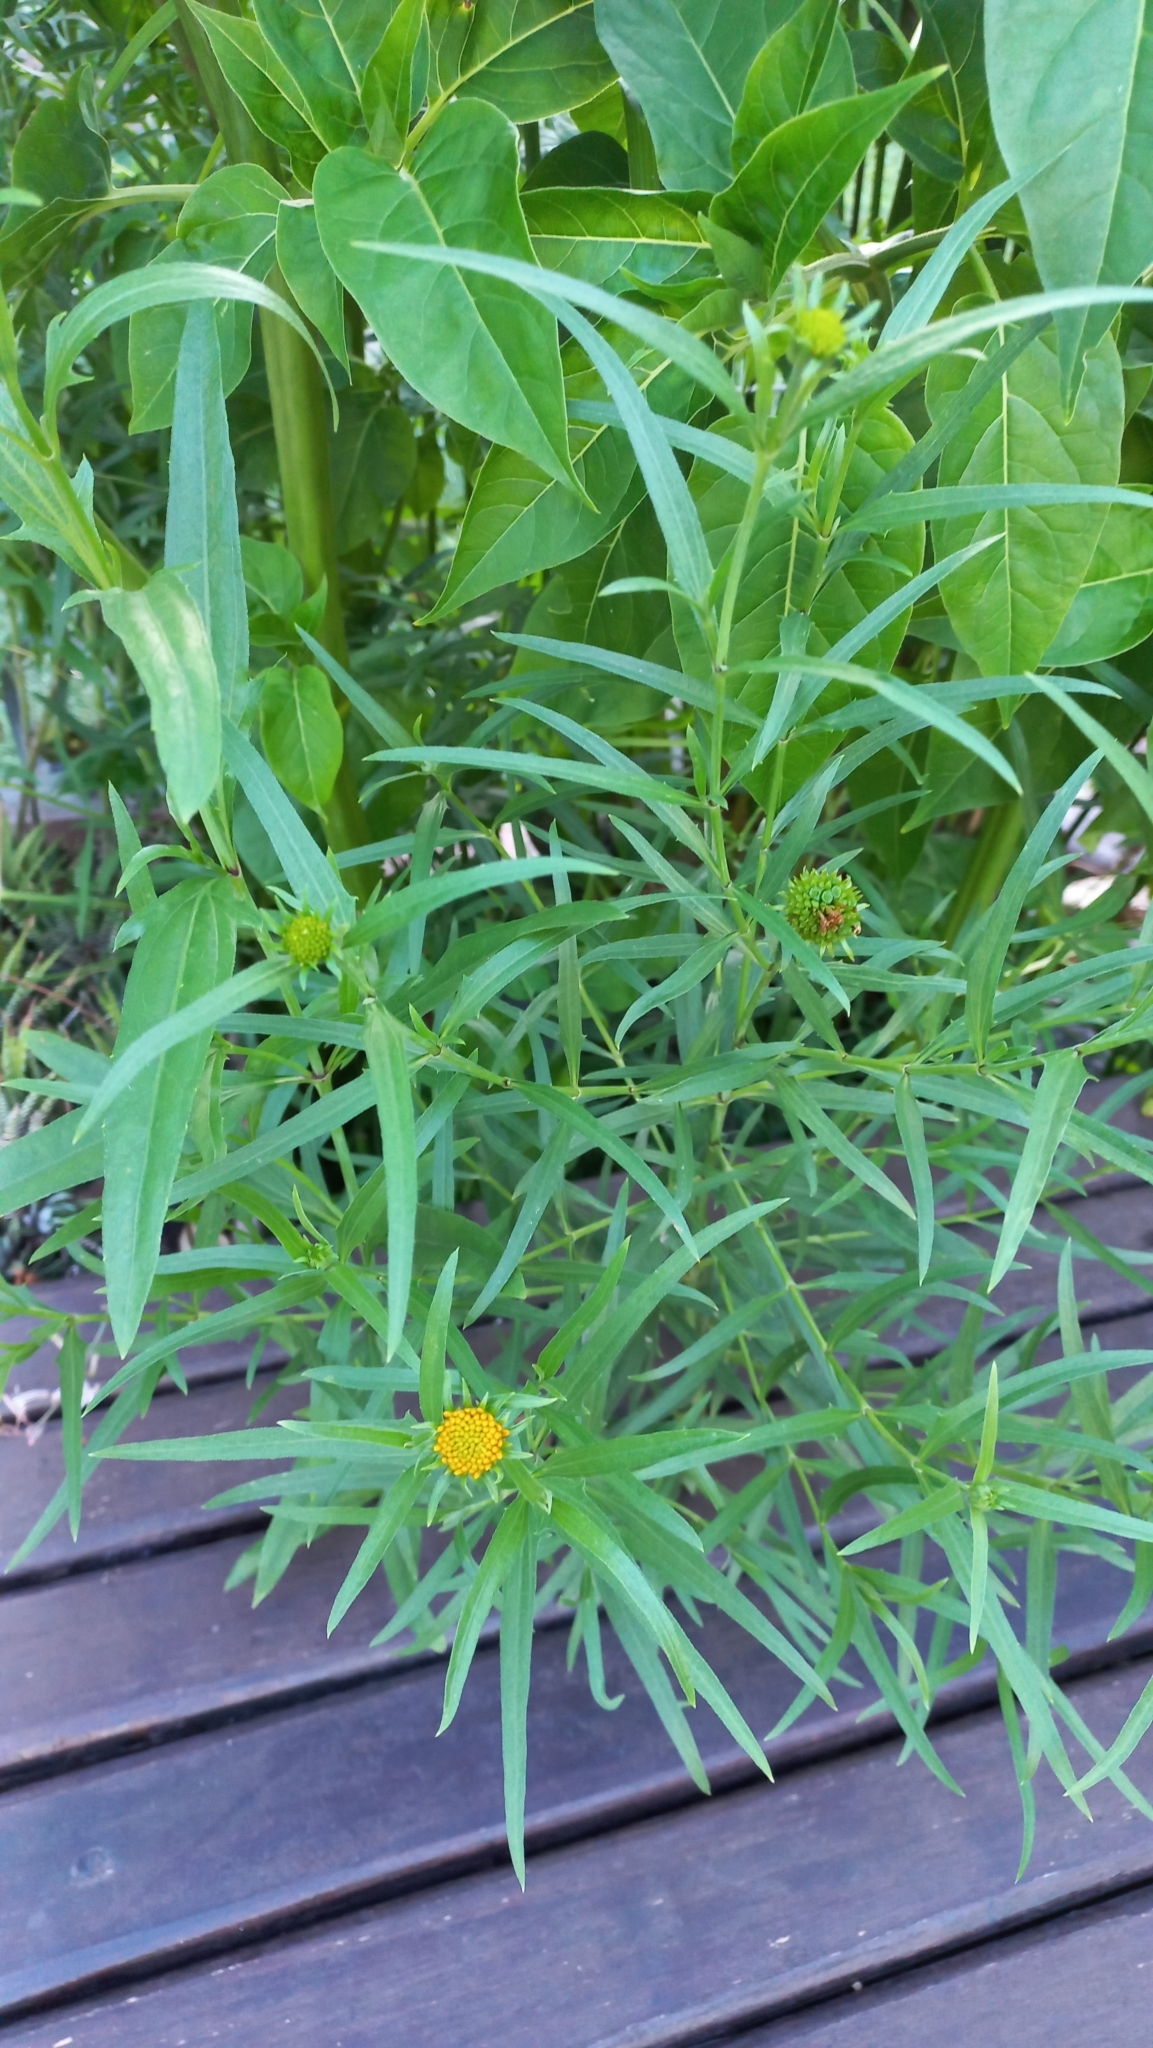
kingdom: Plantae
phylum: Tracheophyta
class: Magnoliopsida
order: Asterales
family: Asteraceae
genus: Pascalia
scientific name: Pascalia glauca
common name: Beach creeping oxeye
